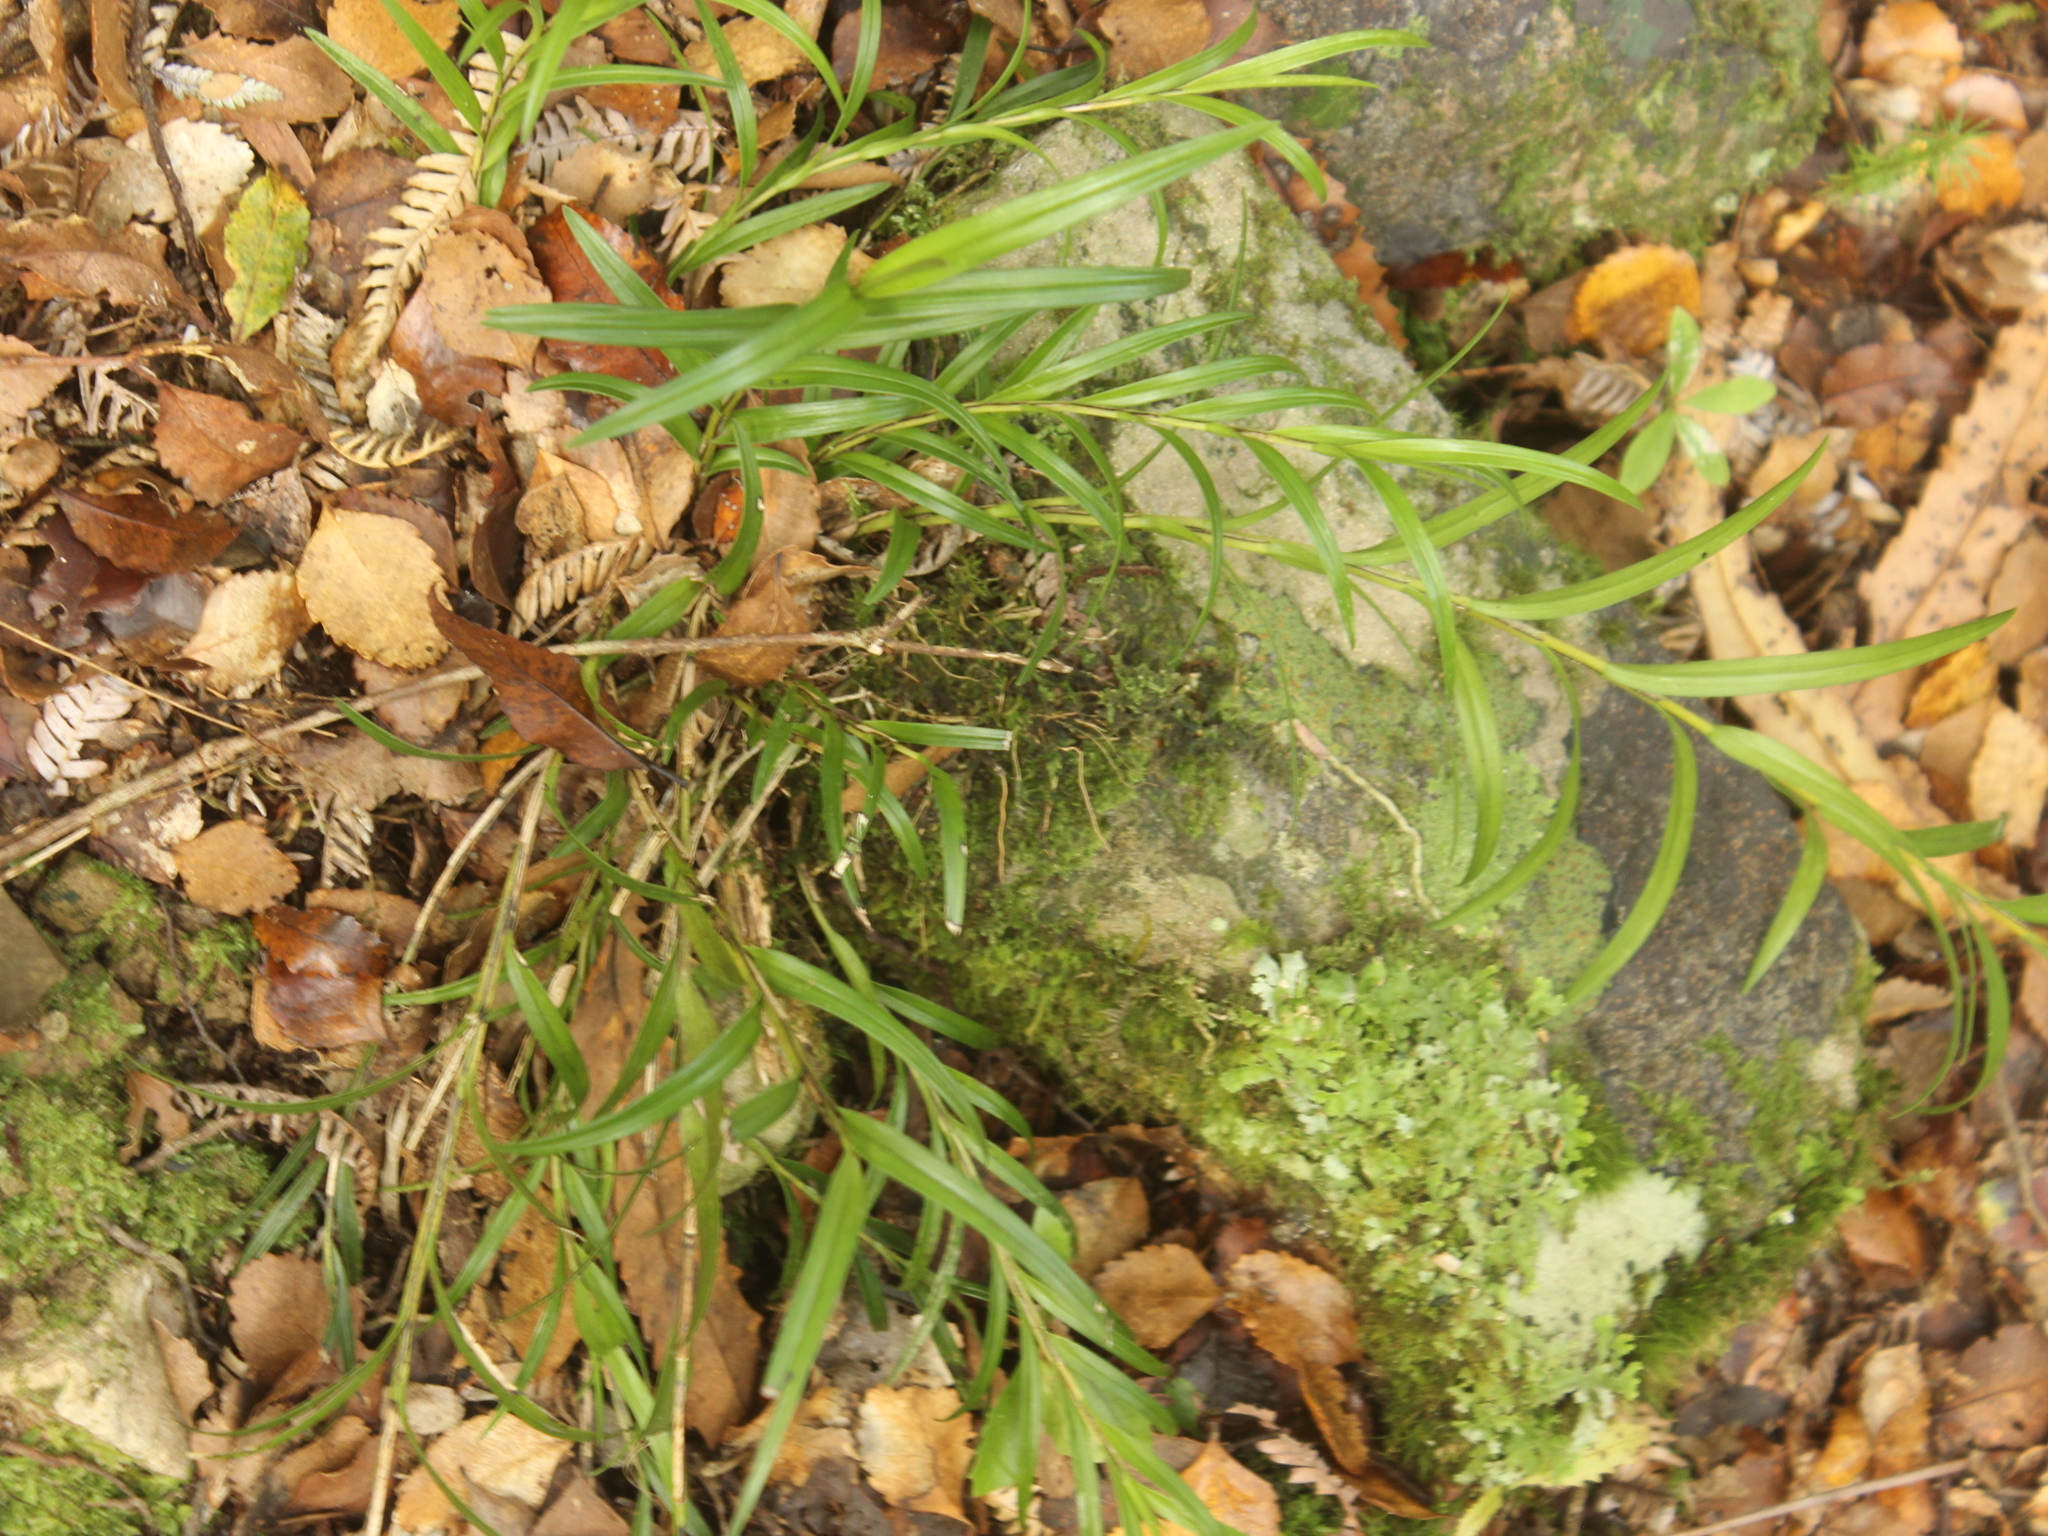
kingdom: Plantae
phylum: Tracheophyta
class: Liliopsida
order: Asparagales
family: Orchidaceae
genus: Earina
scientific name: Earina autumnalis
